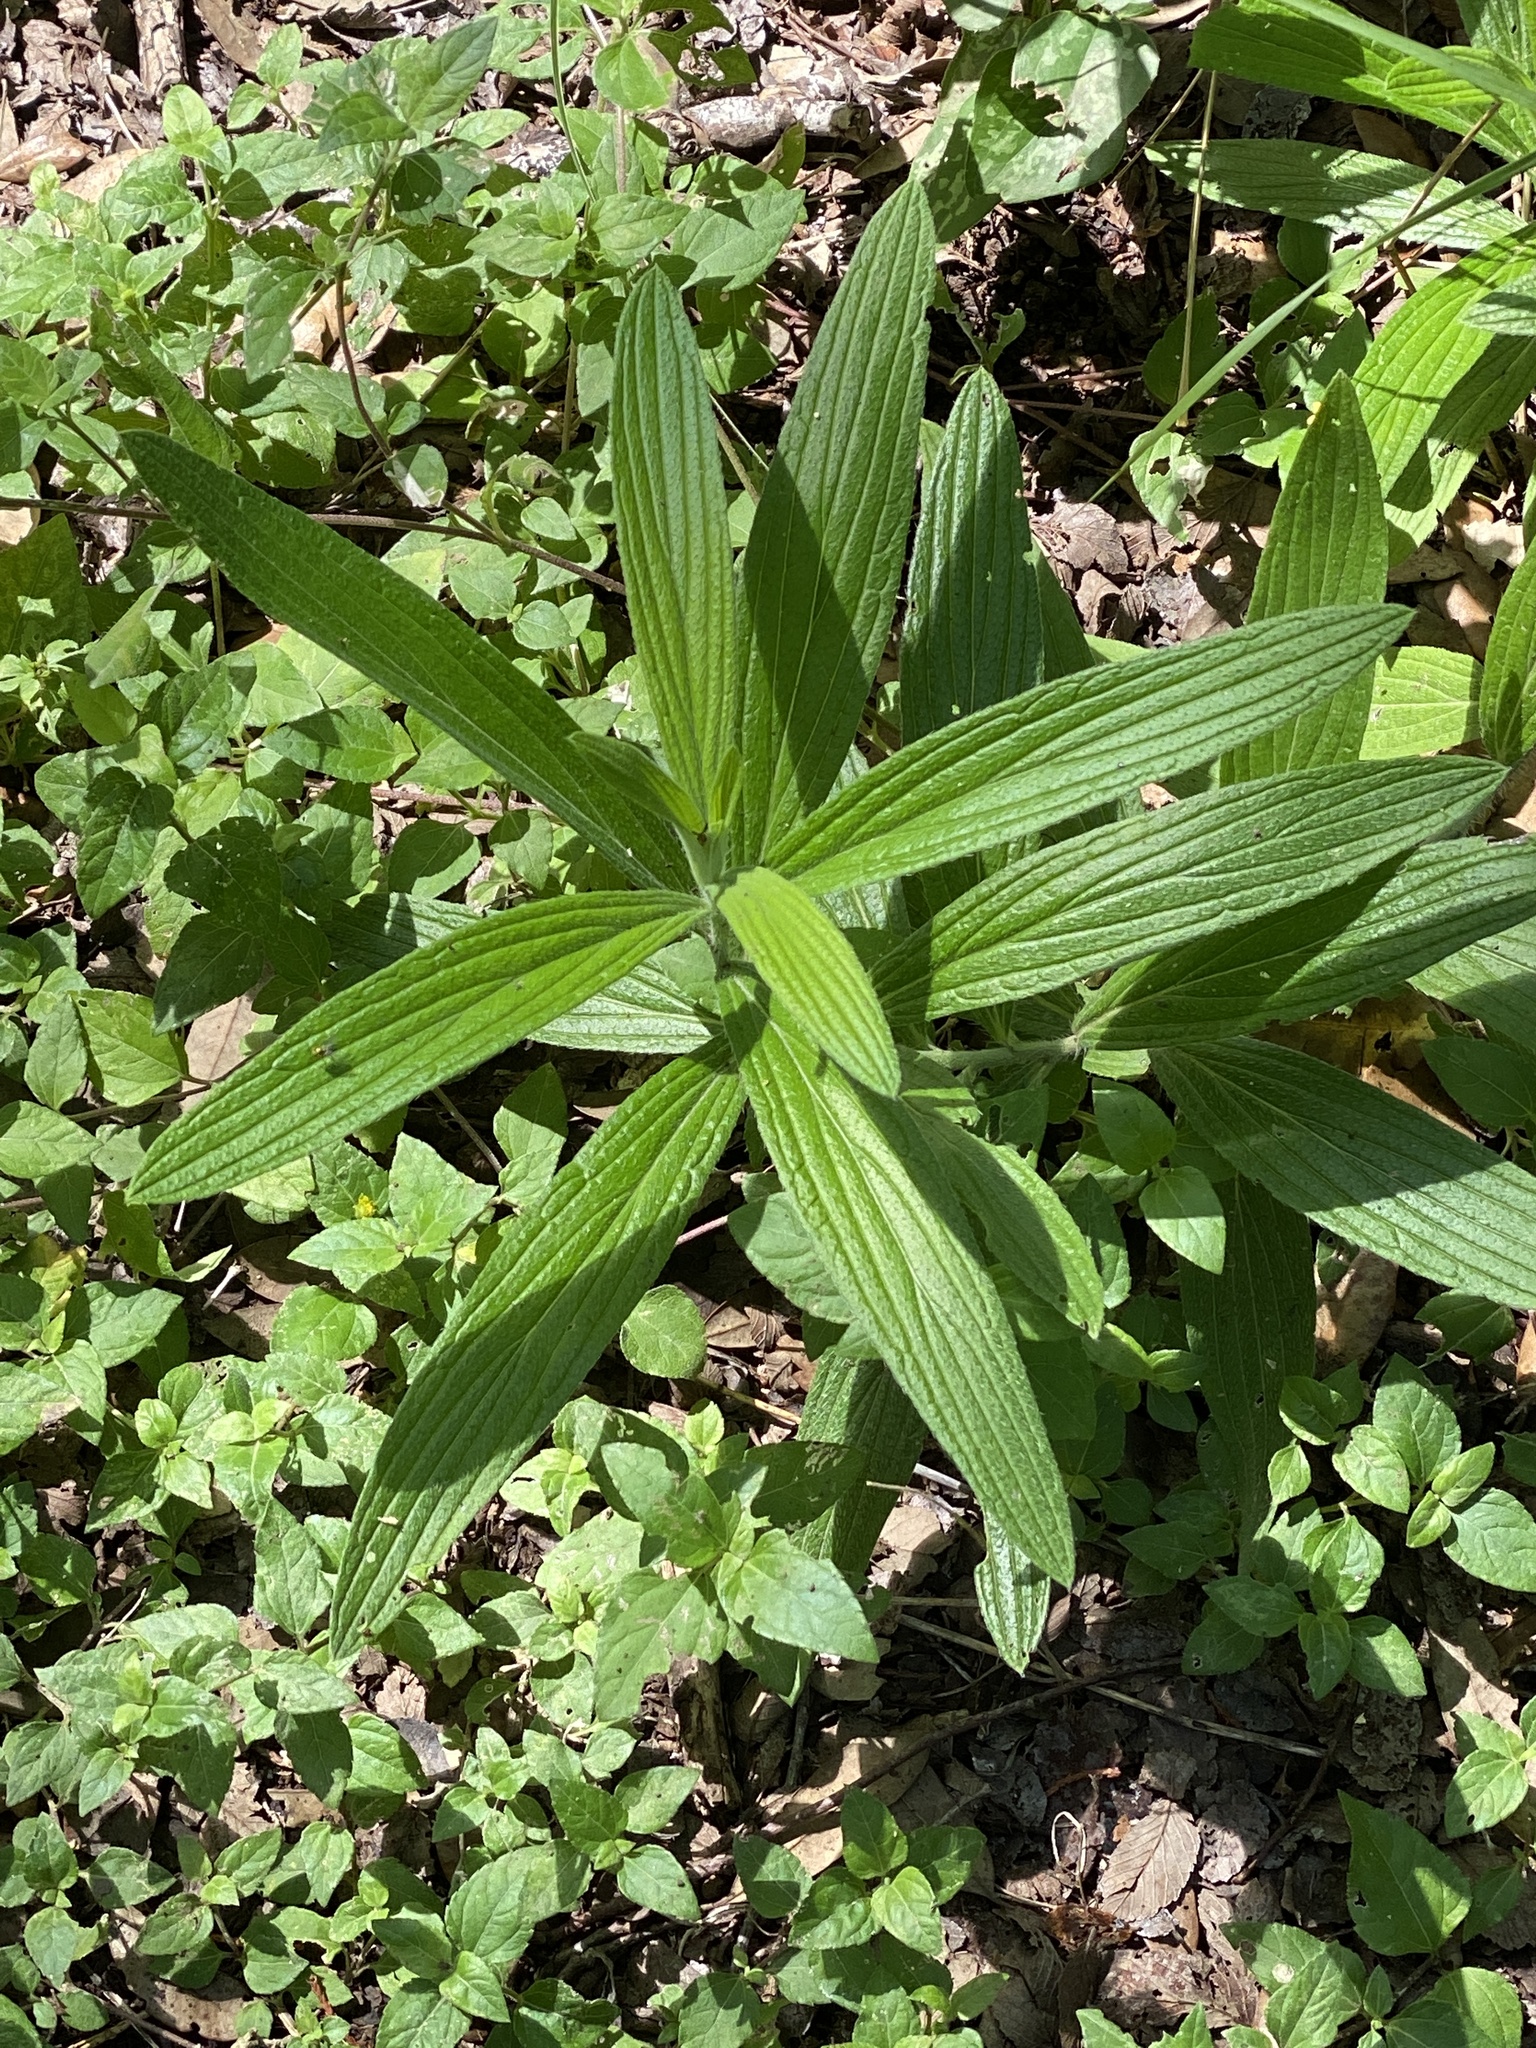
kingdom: Plantae
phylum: Tracheophyta
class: Magnoliopsida
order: Boraginales
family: Boraginaceae
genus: Lithospermum
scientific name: Lithospermum caroliniense
